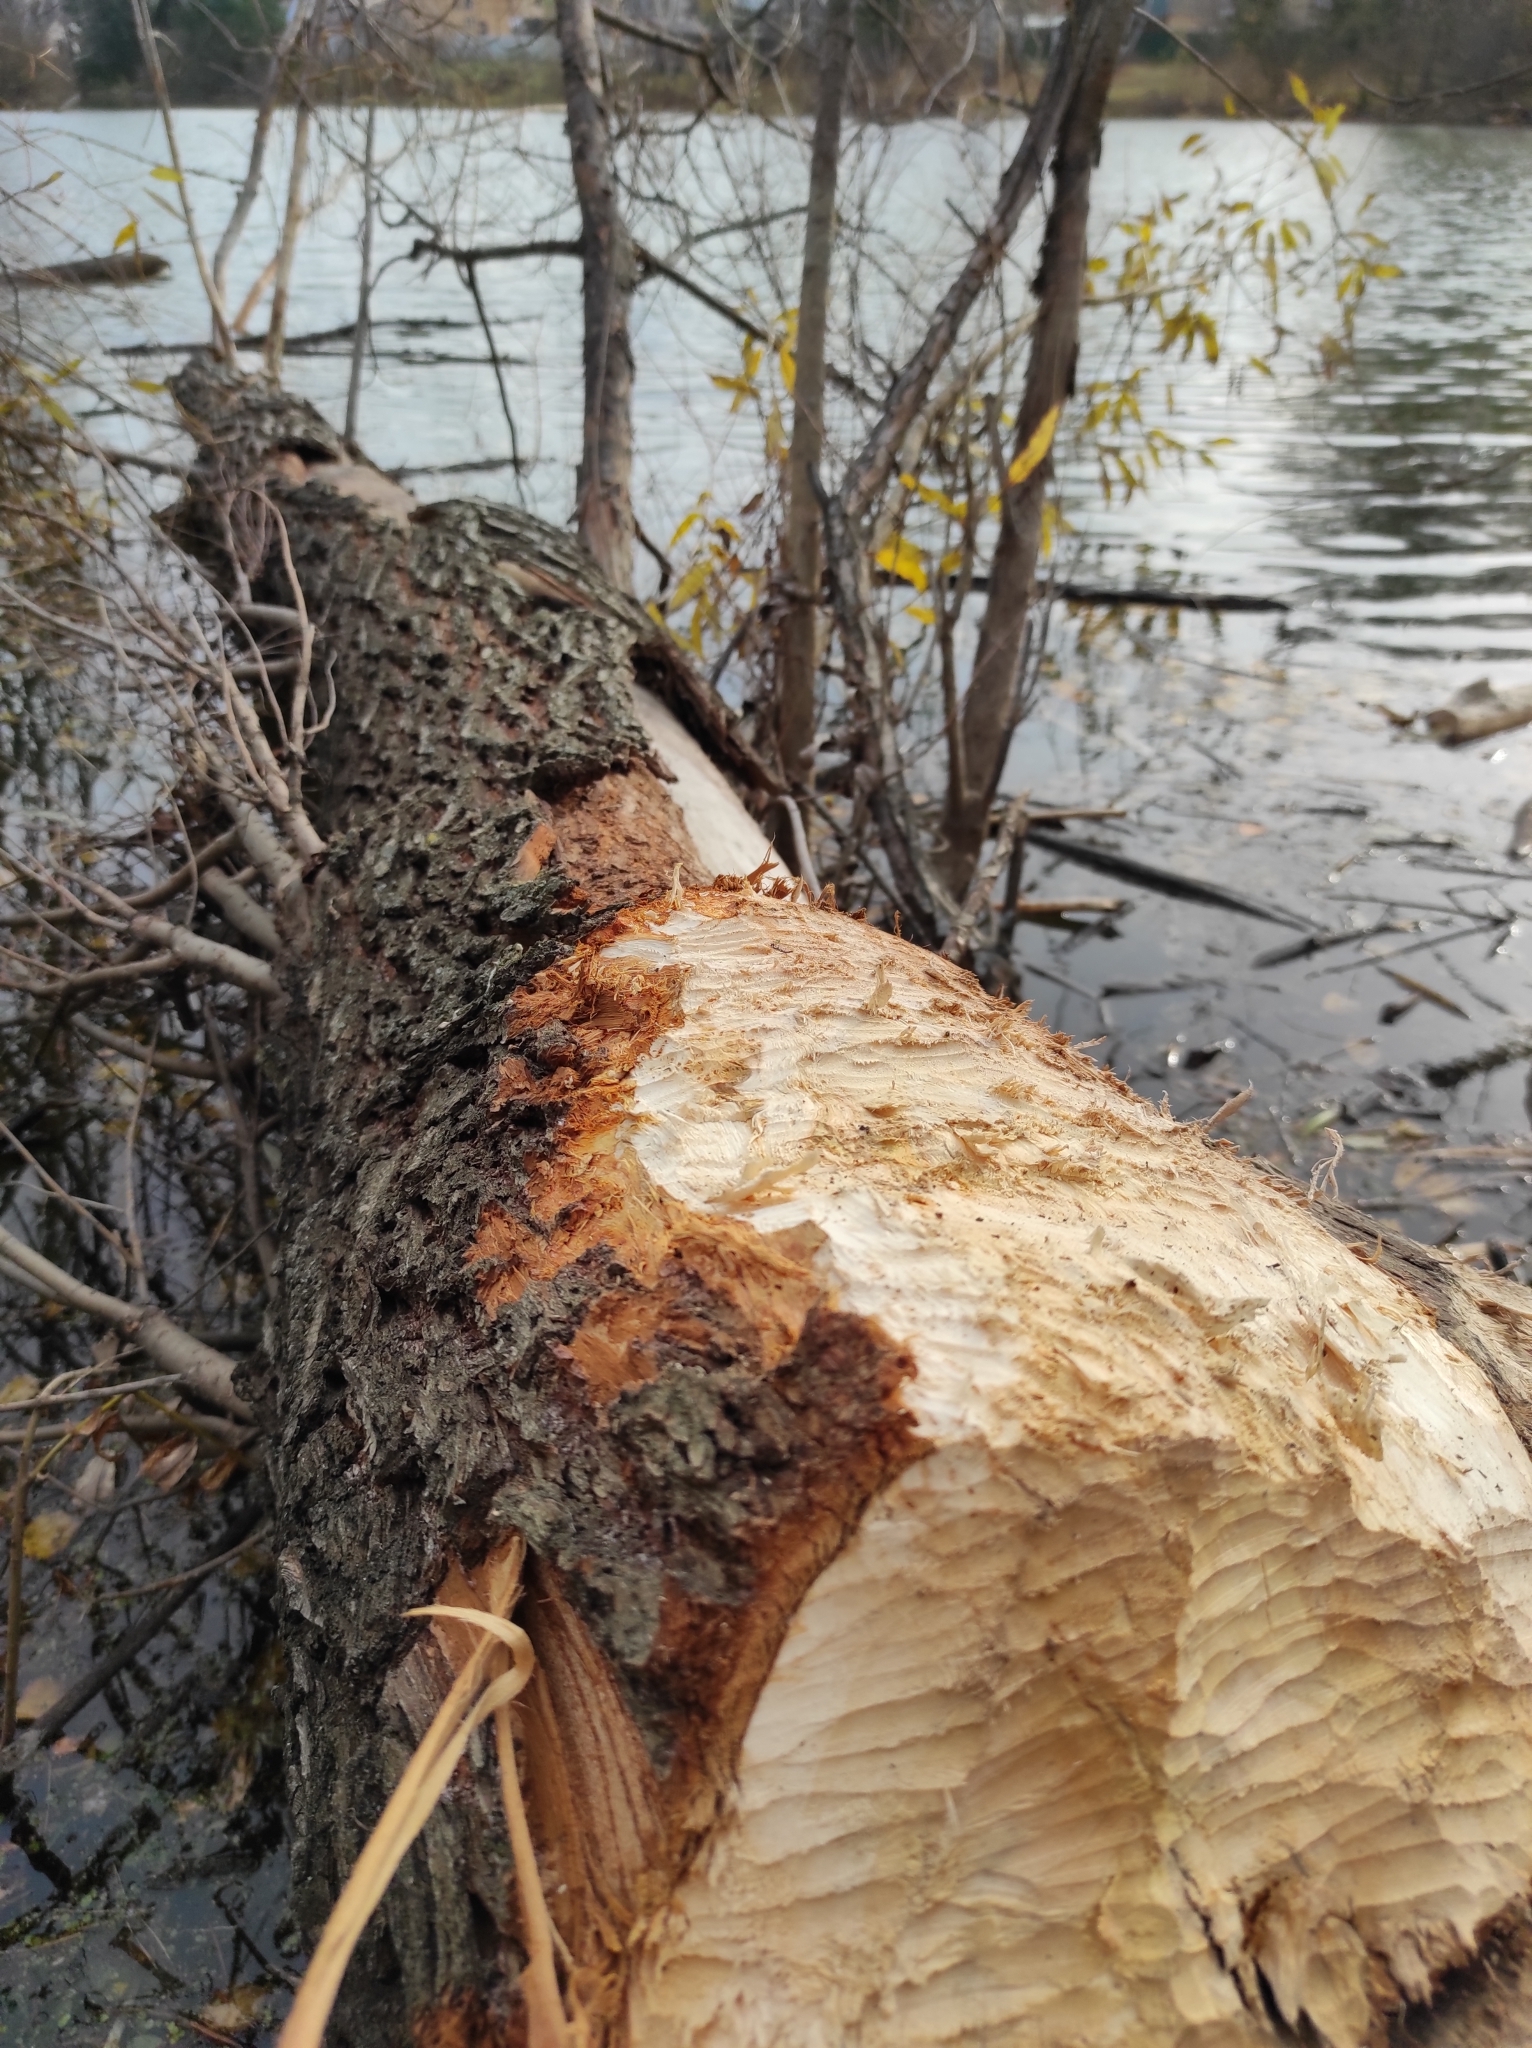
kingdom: Animalia
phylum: Chordata
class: Mammalia
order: Rodentia
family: Castoridae
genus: Castor
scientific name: Castor fiber
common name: Eurasian beaver
